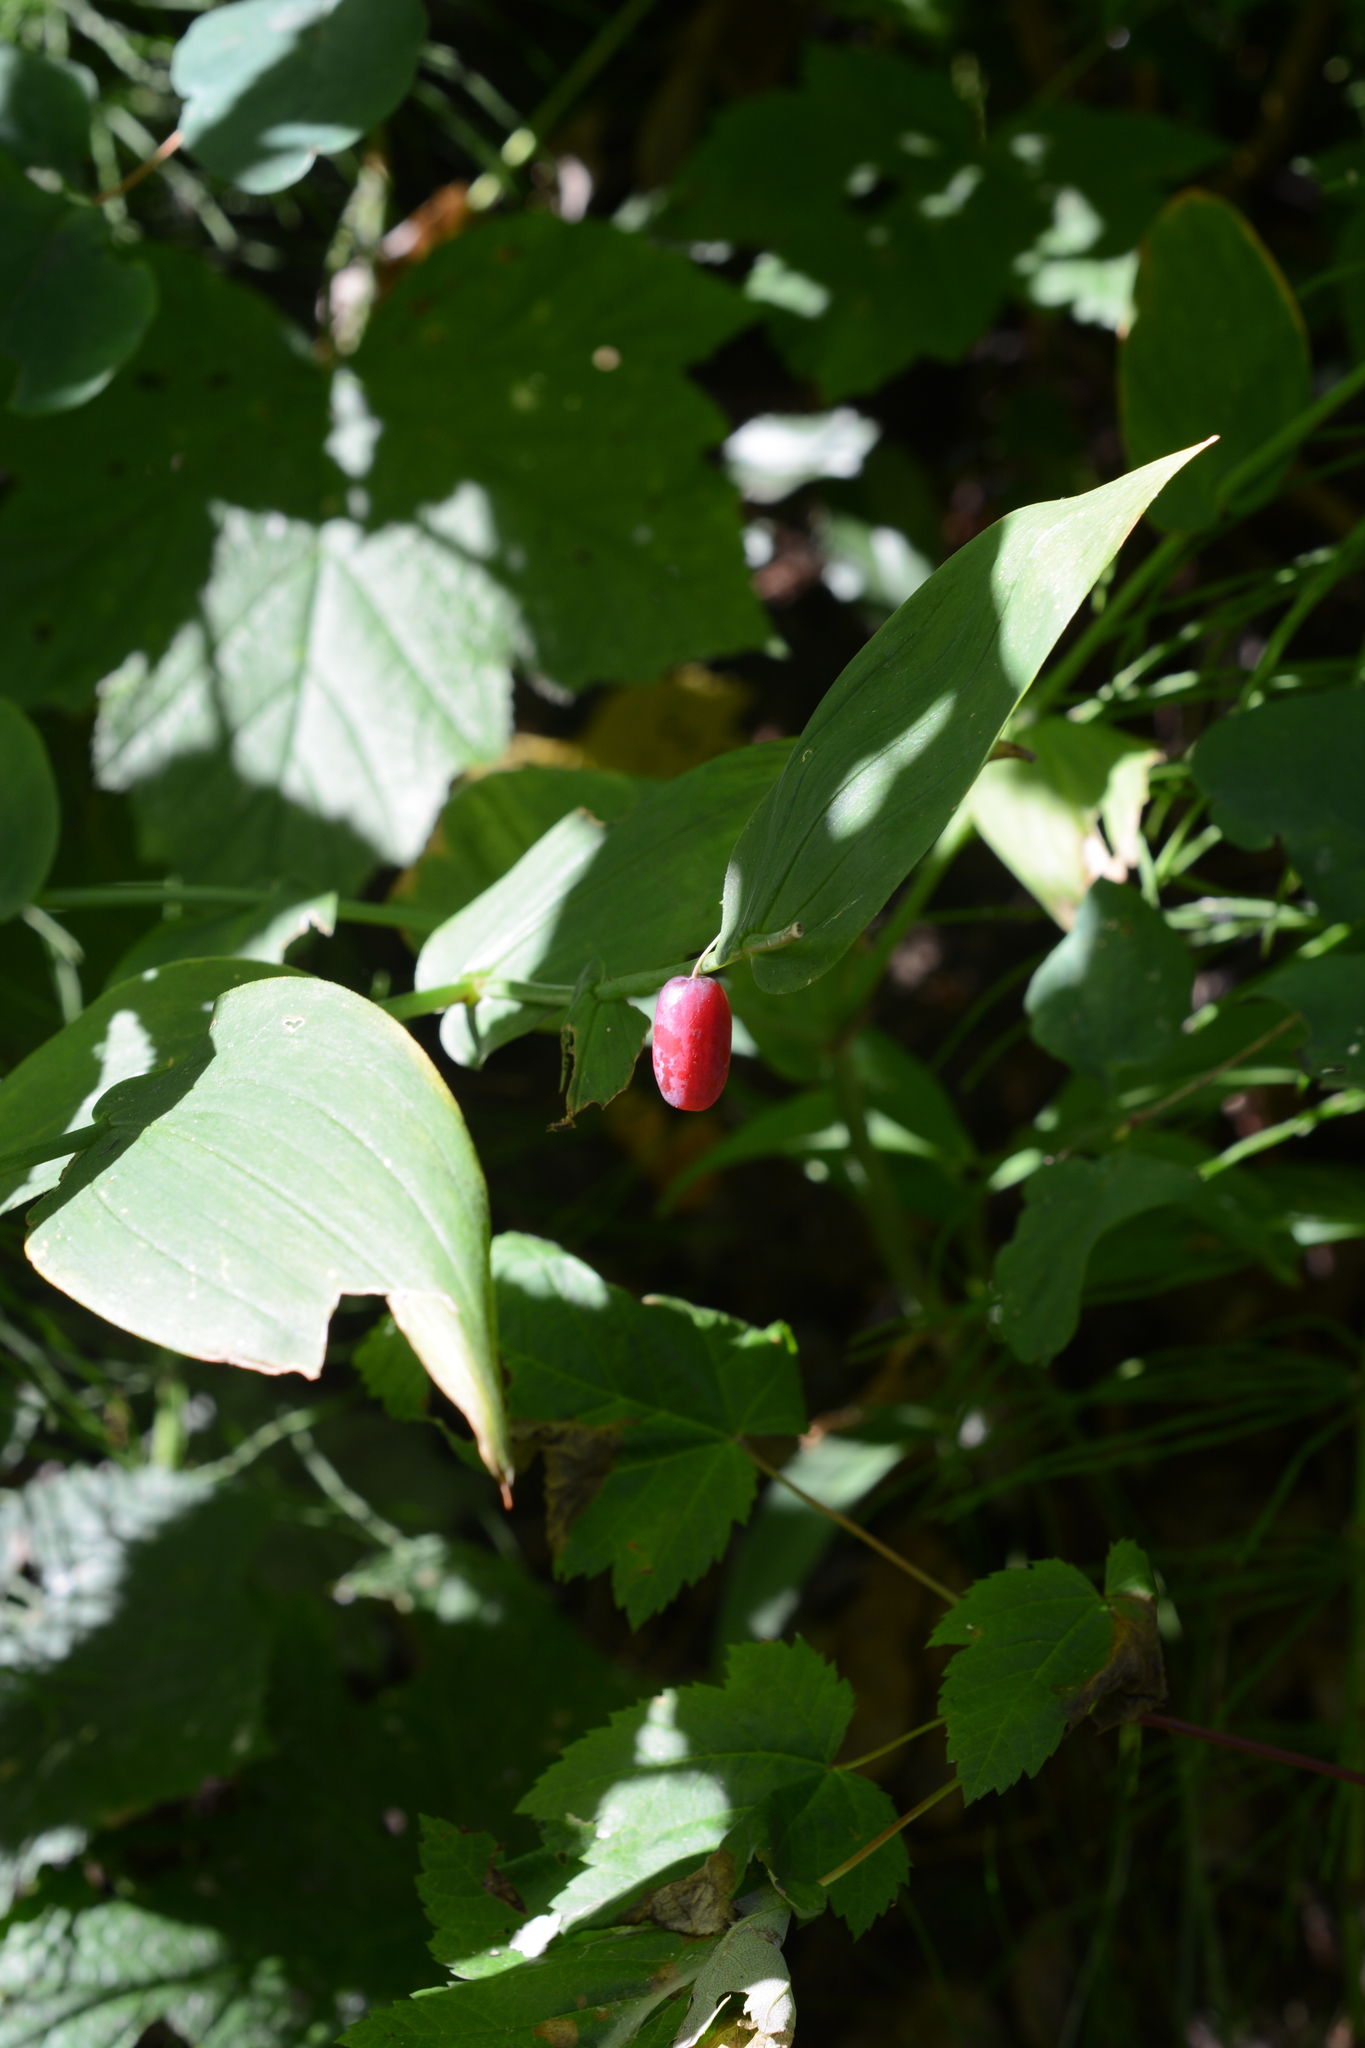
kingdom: Plantae
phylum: Tracheophyta
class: Liliopsida
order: Liliales
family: Liliaceae
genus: Streptopus
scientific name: Streptopus amplexifolius
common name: Clasp twisted stalk
